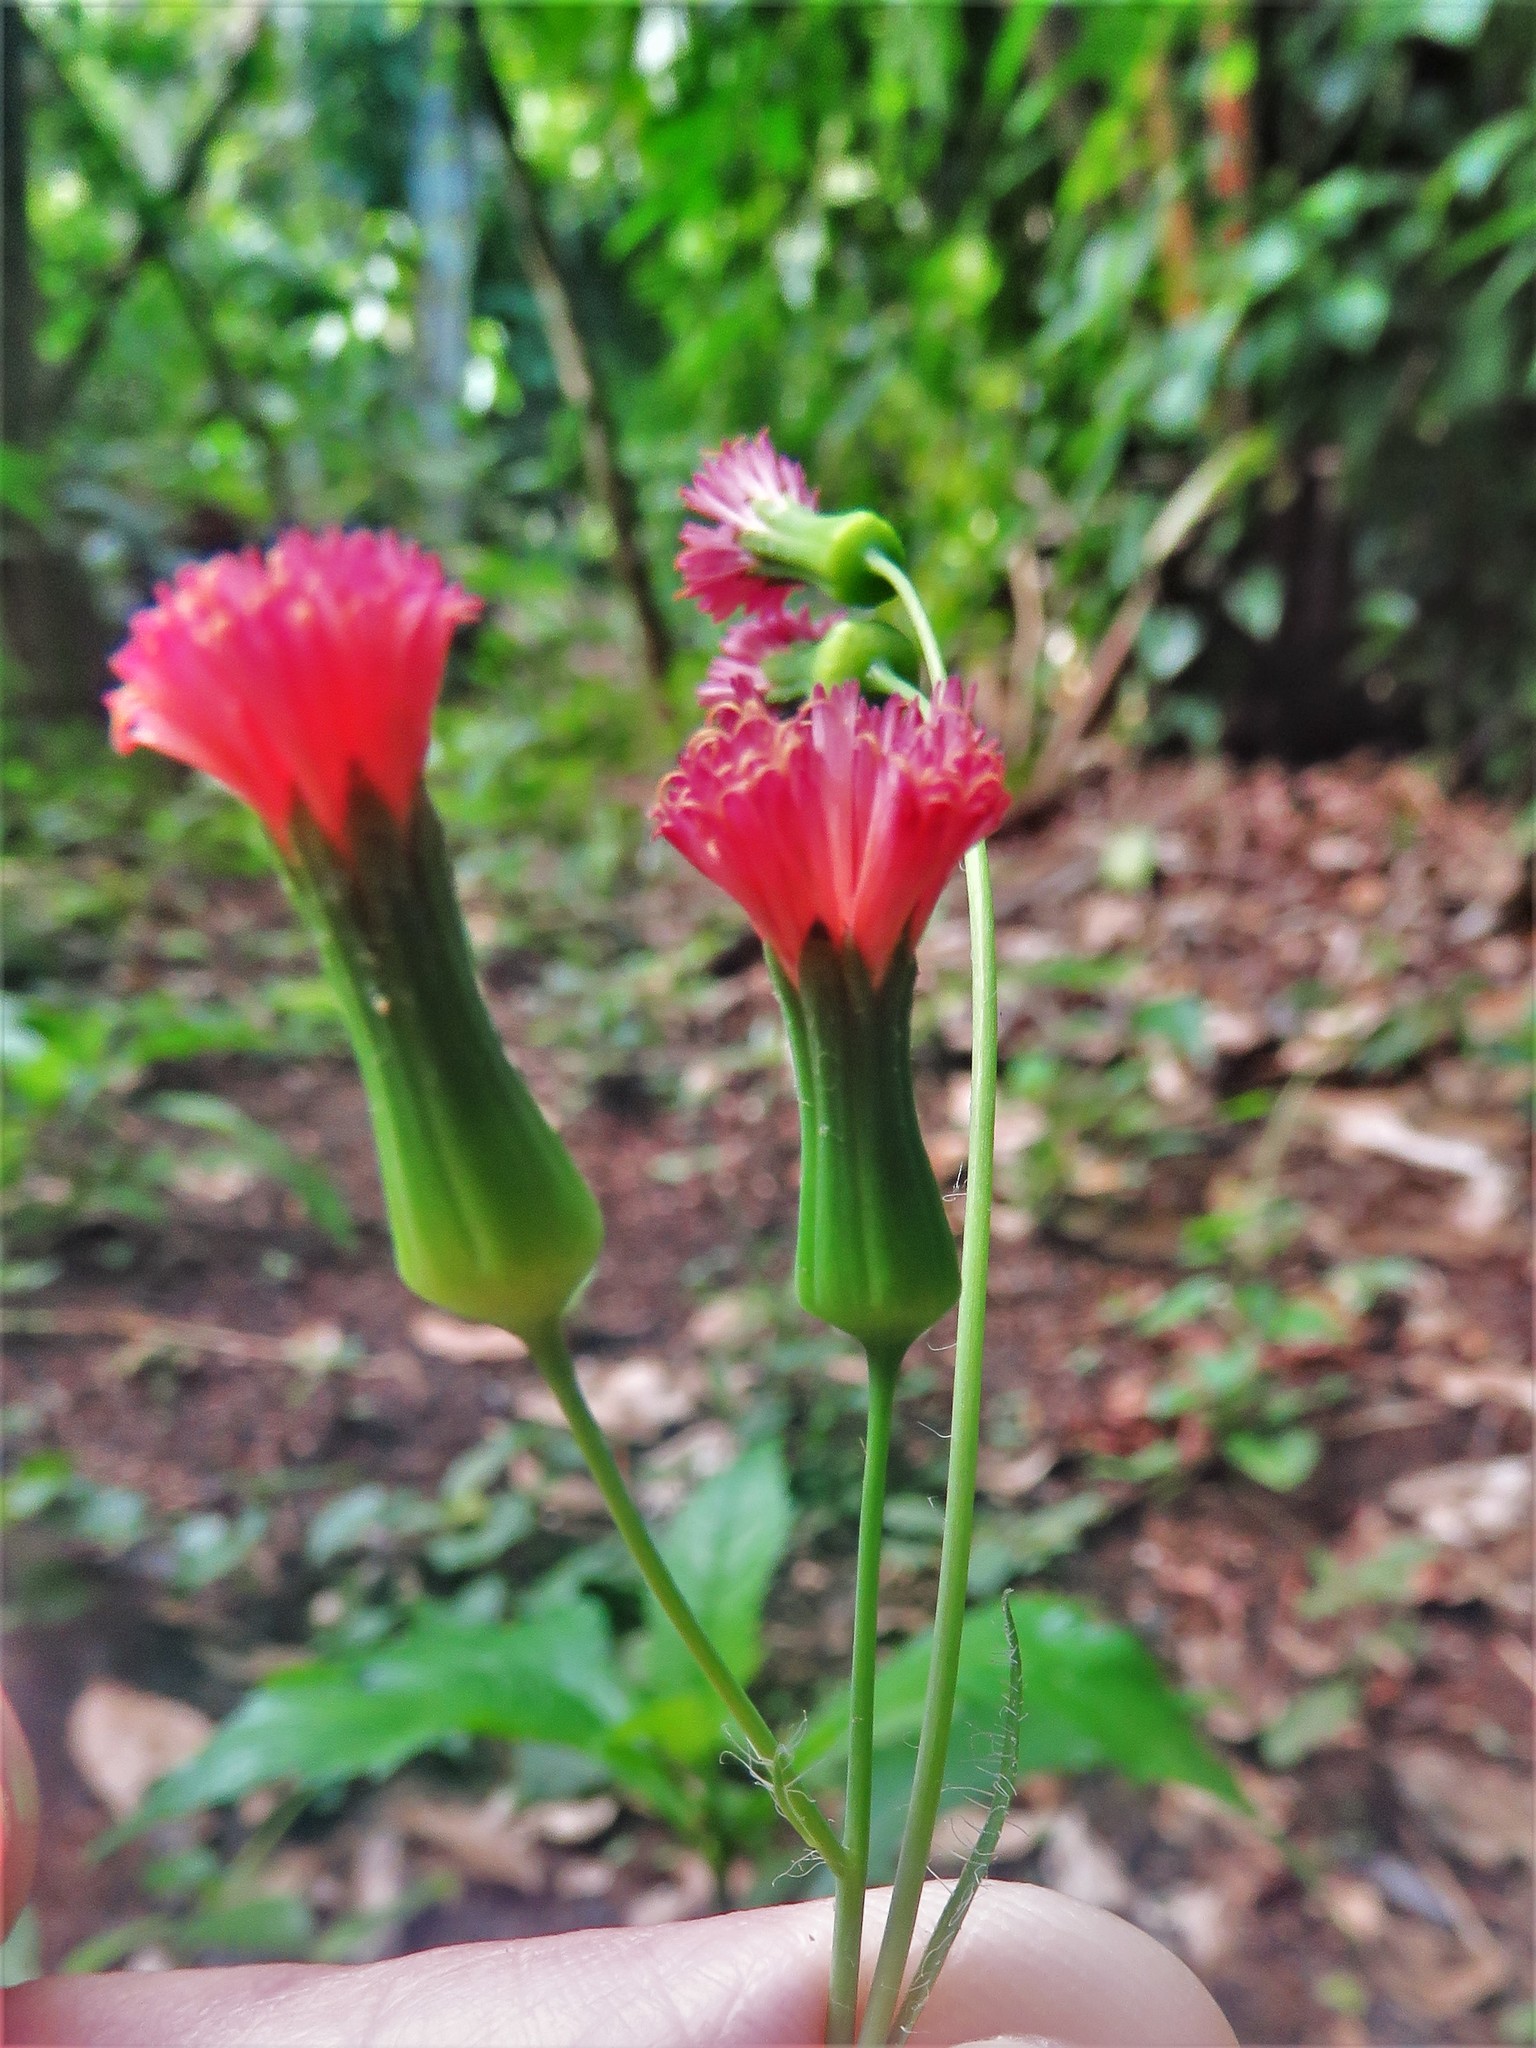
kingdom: Plantae
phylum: Tracheophyta
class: Magnoliopsida
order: Asterales
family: Asteraceae
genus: Emilia
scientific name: Emilia fosbergii
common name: Florida tasselflower
